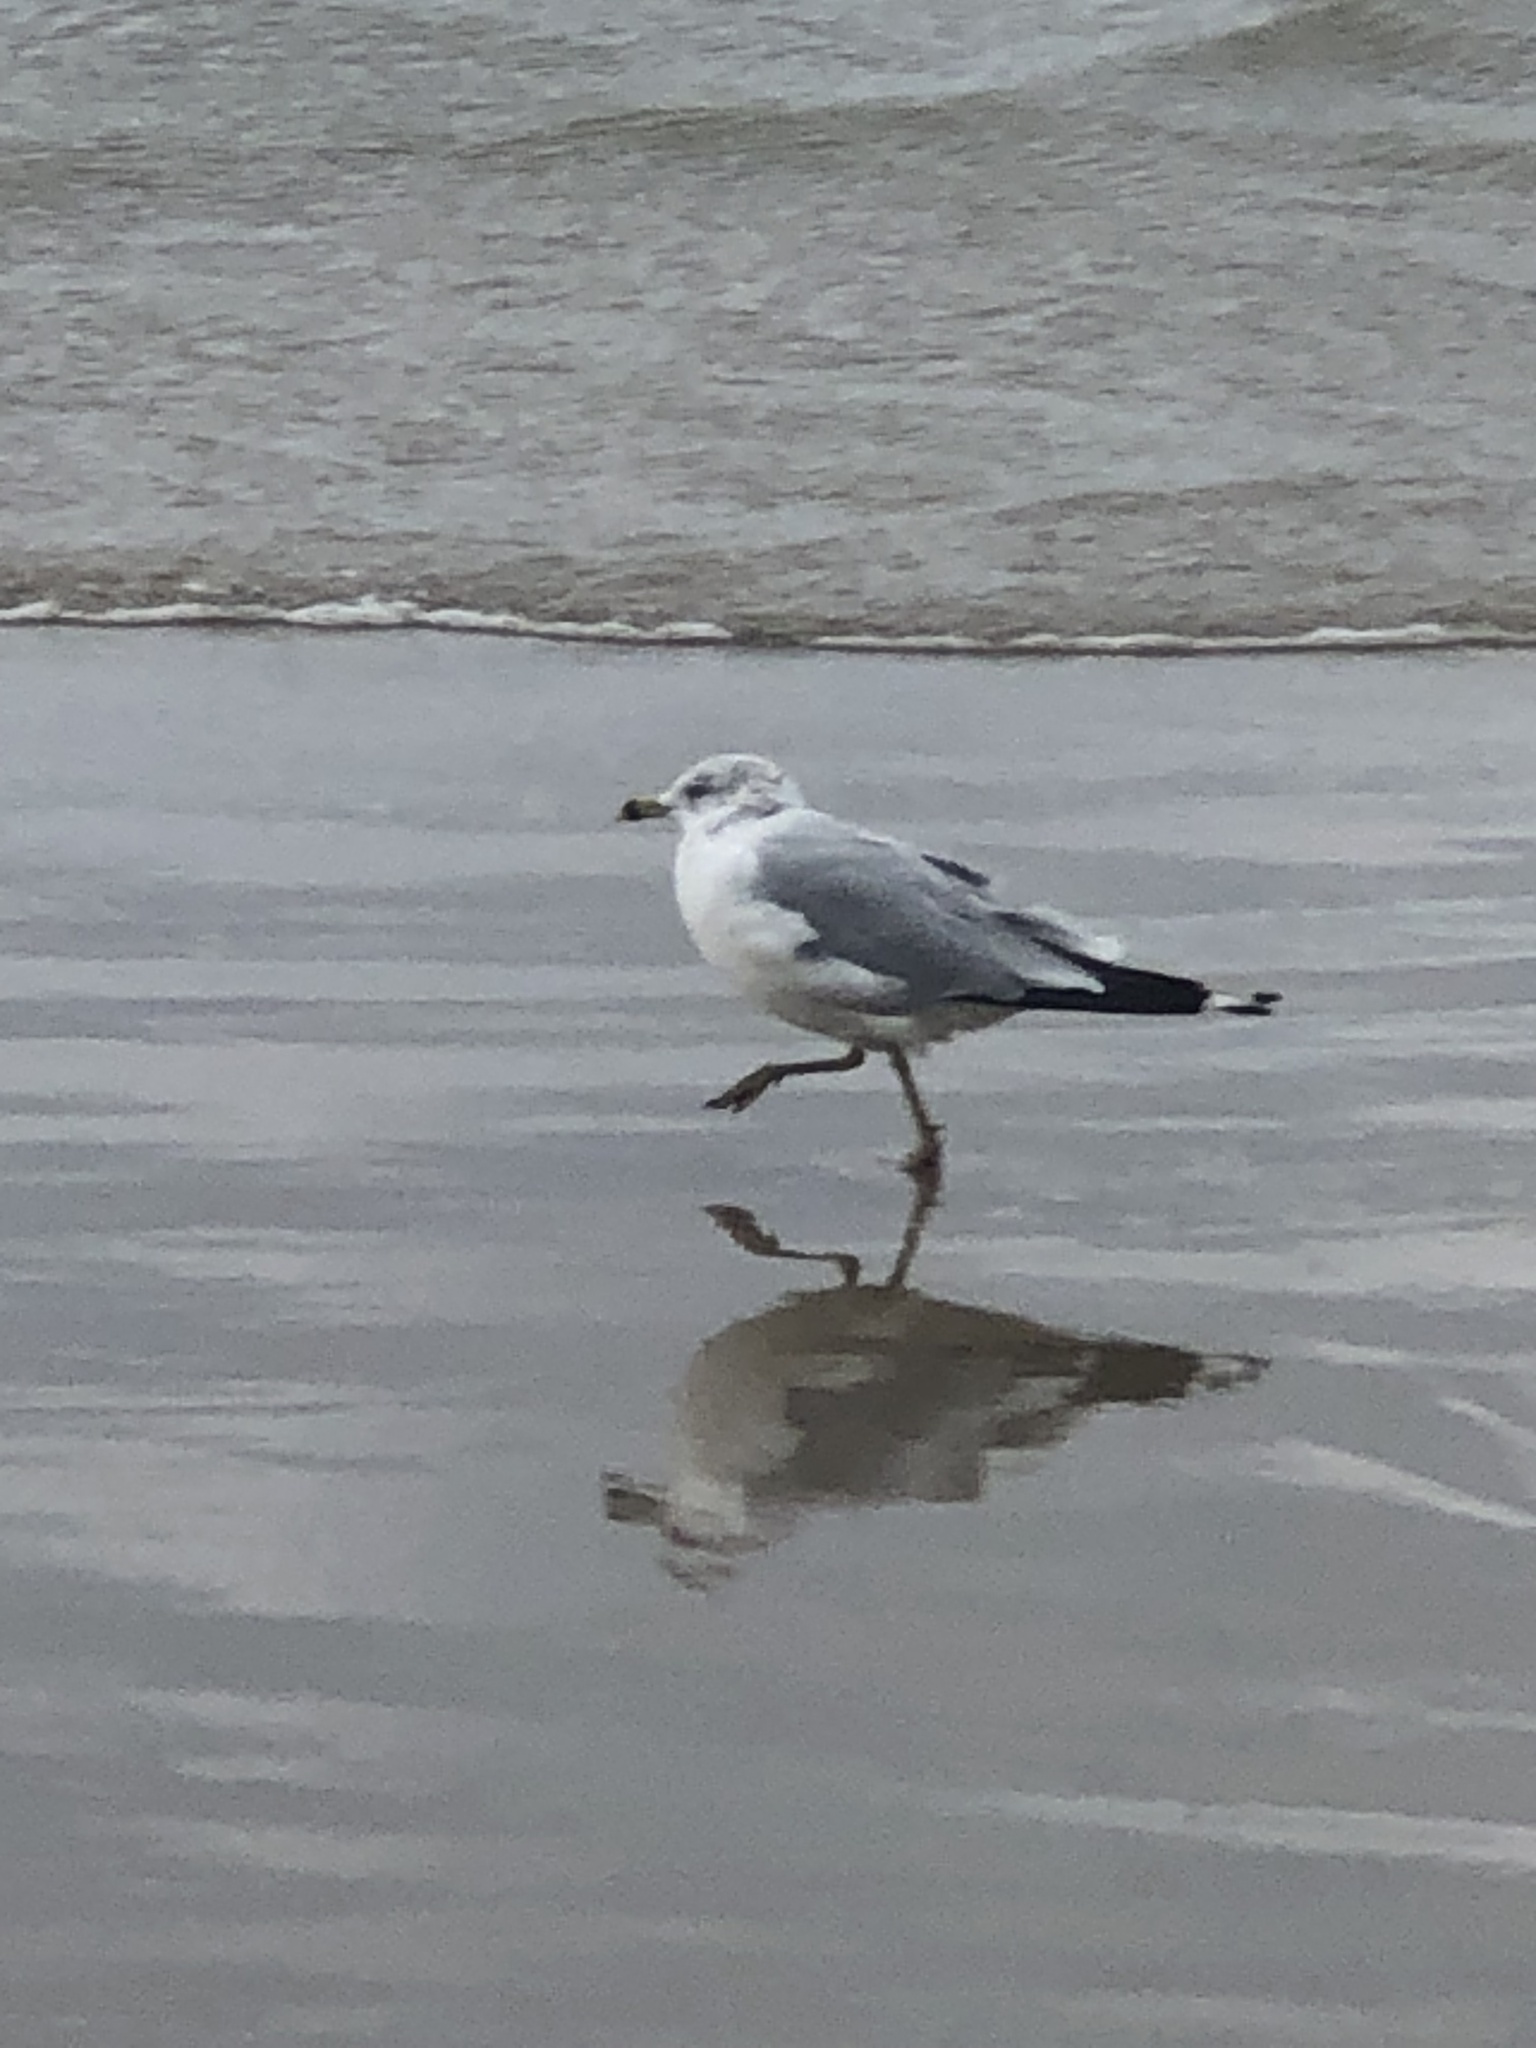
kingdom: Animalia
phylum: Chordata
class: Aves
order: Charadriiformes
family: Laridae
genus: Larus
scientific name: Larus delawarensis
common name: Ring-billed gull
